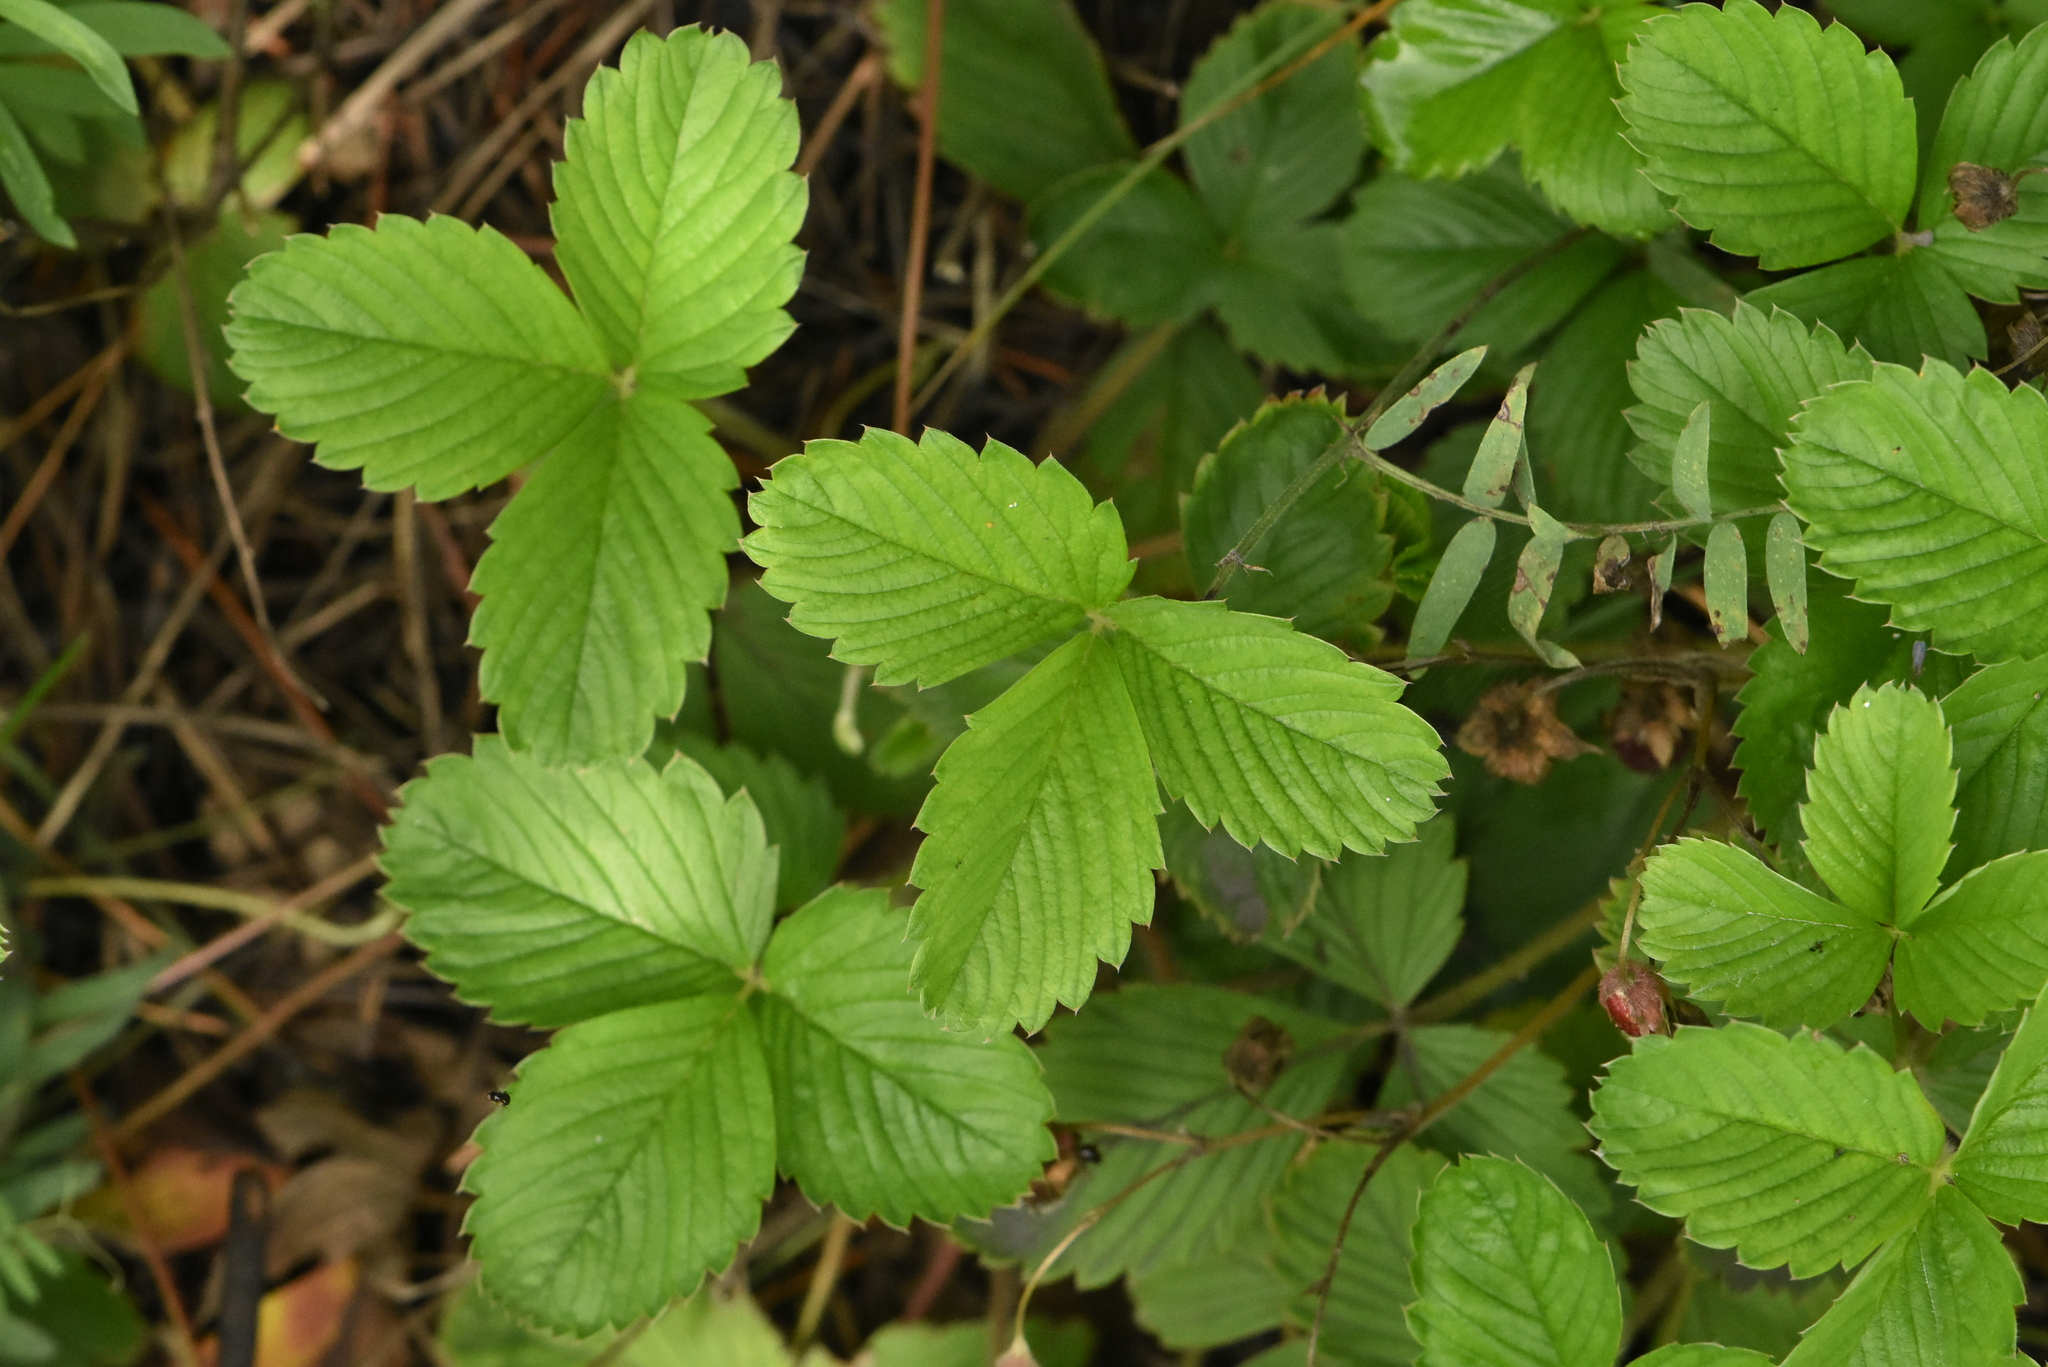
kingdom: Plantae
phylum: Tracheophyta
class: Magnoliopsida
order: Rosales
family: Rosaceae
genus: Fragaria
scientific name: Fragaria viridis
